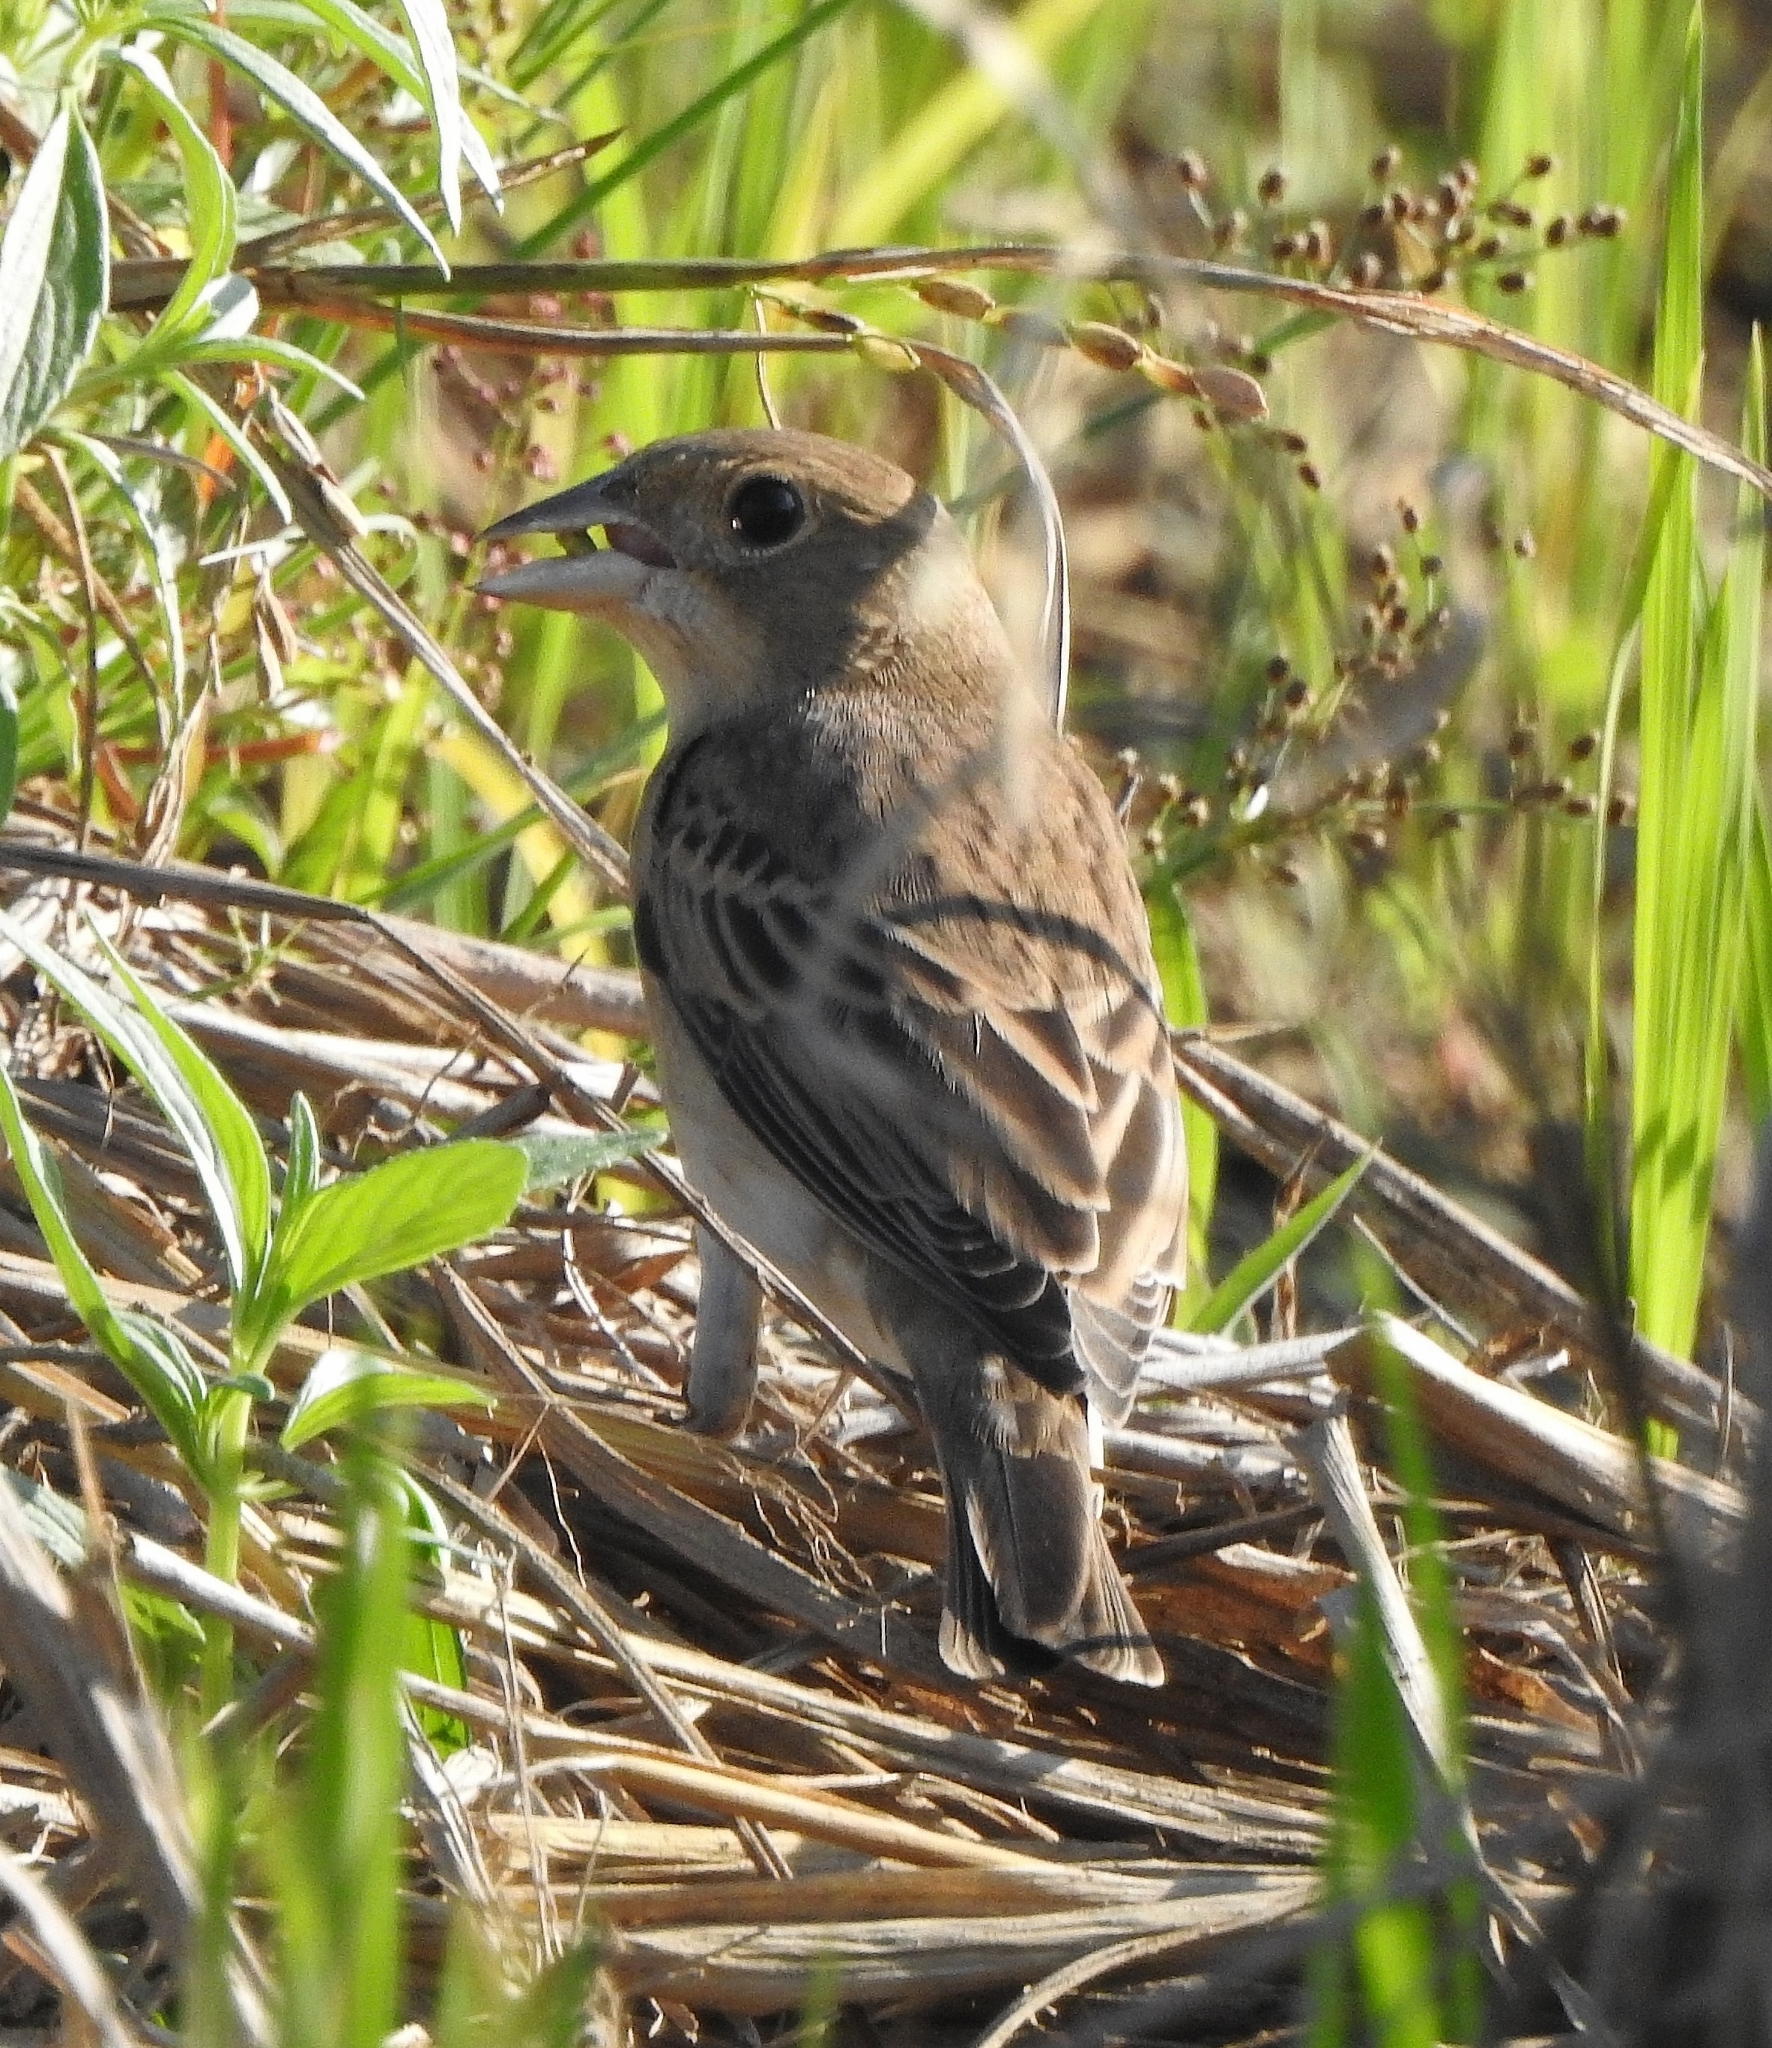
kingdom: Animalia
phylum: Chordata
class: Aves
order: Passeriformes
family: Emberizidae
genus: Emberiza
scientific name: Emberiza bruniceps
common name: Red-headed bunting
